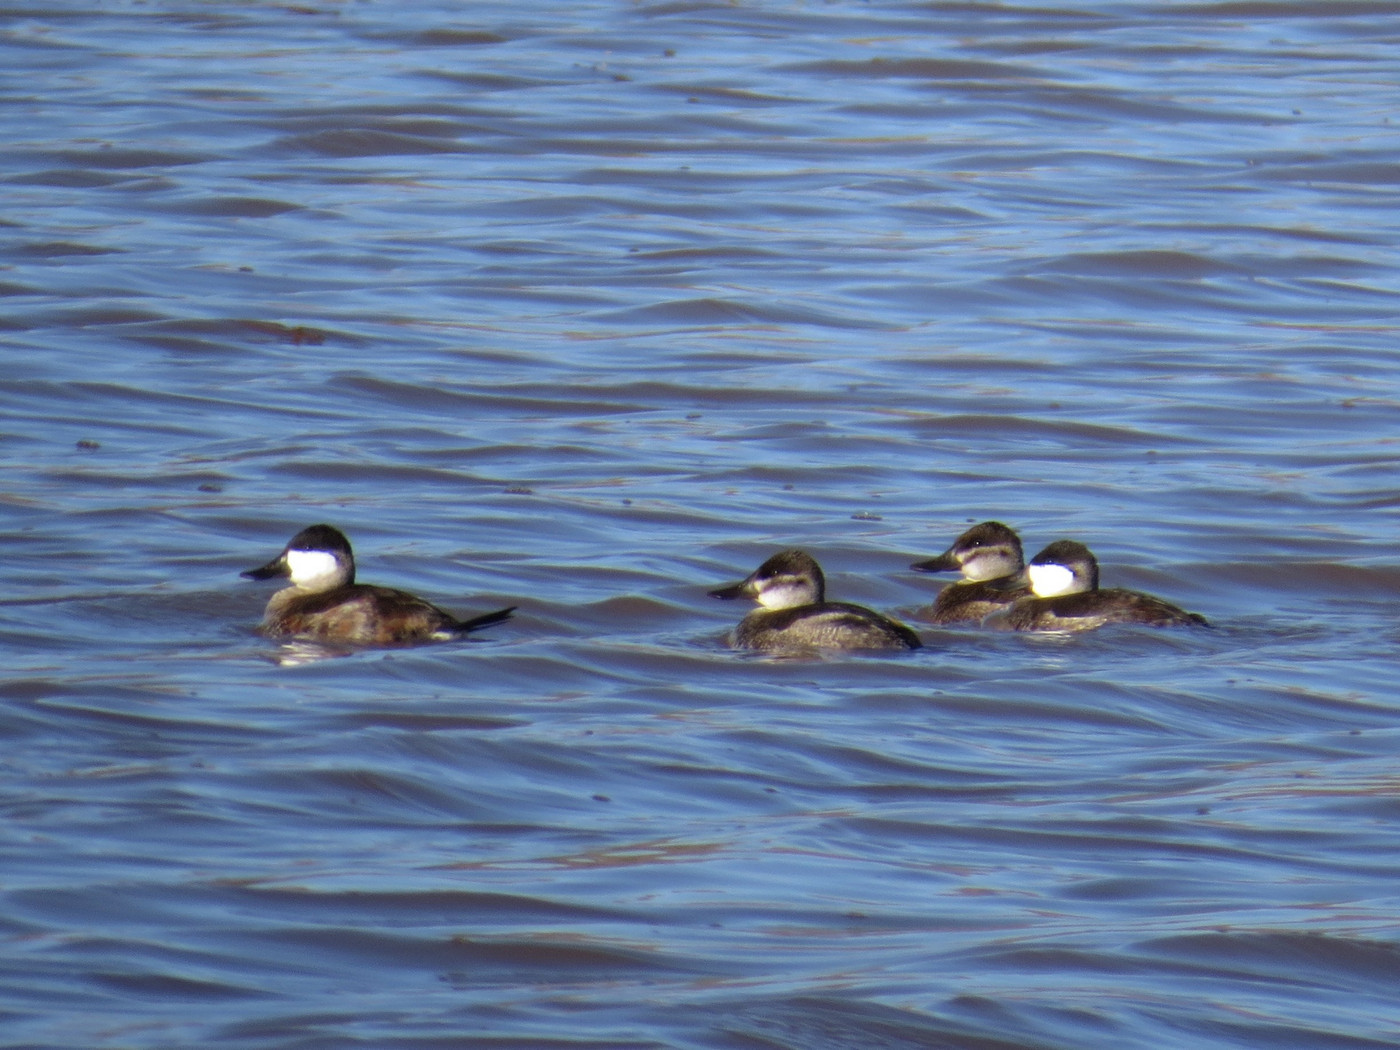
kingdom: Animalia
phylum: Chordata
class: Aves
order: Anseriformes
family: Anatidae
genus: Oxyura
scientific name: Oxyura jamaicensis
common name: Ruddy duck
